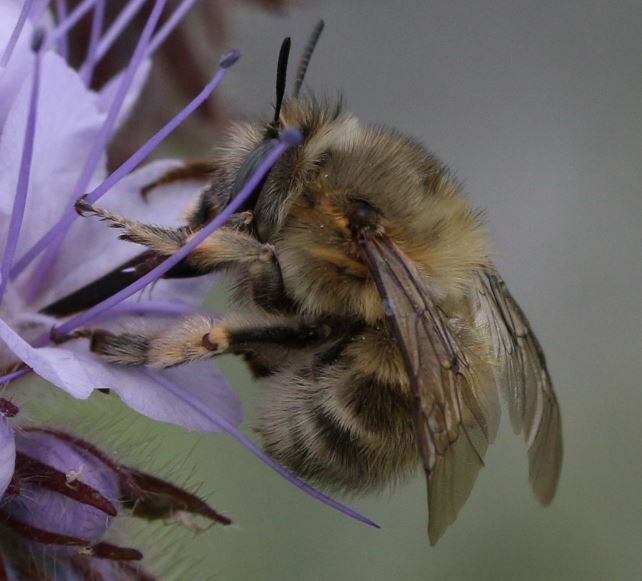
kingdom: Animalia
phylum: Arthropoda
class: Insecta
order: Hymenoptera
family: Apidae
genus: Anthophora
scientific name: Anthophora plumipes
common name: Hairy-footed flower bee
